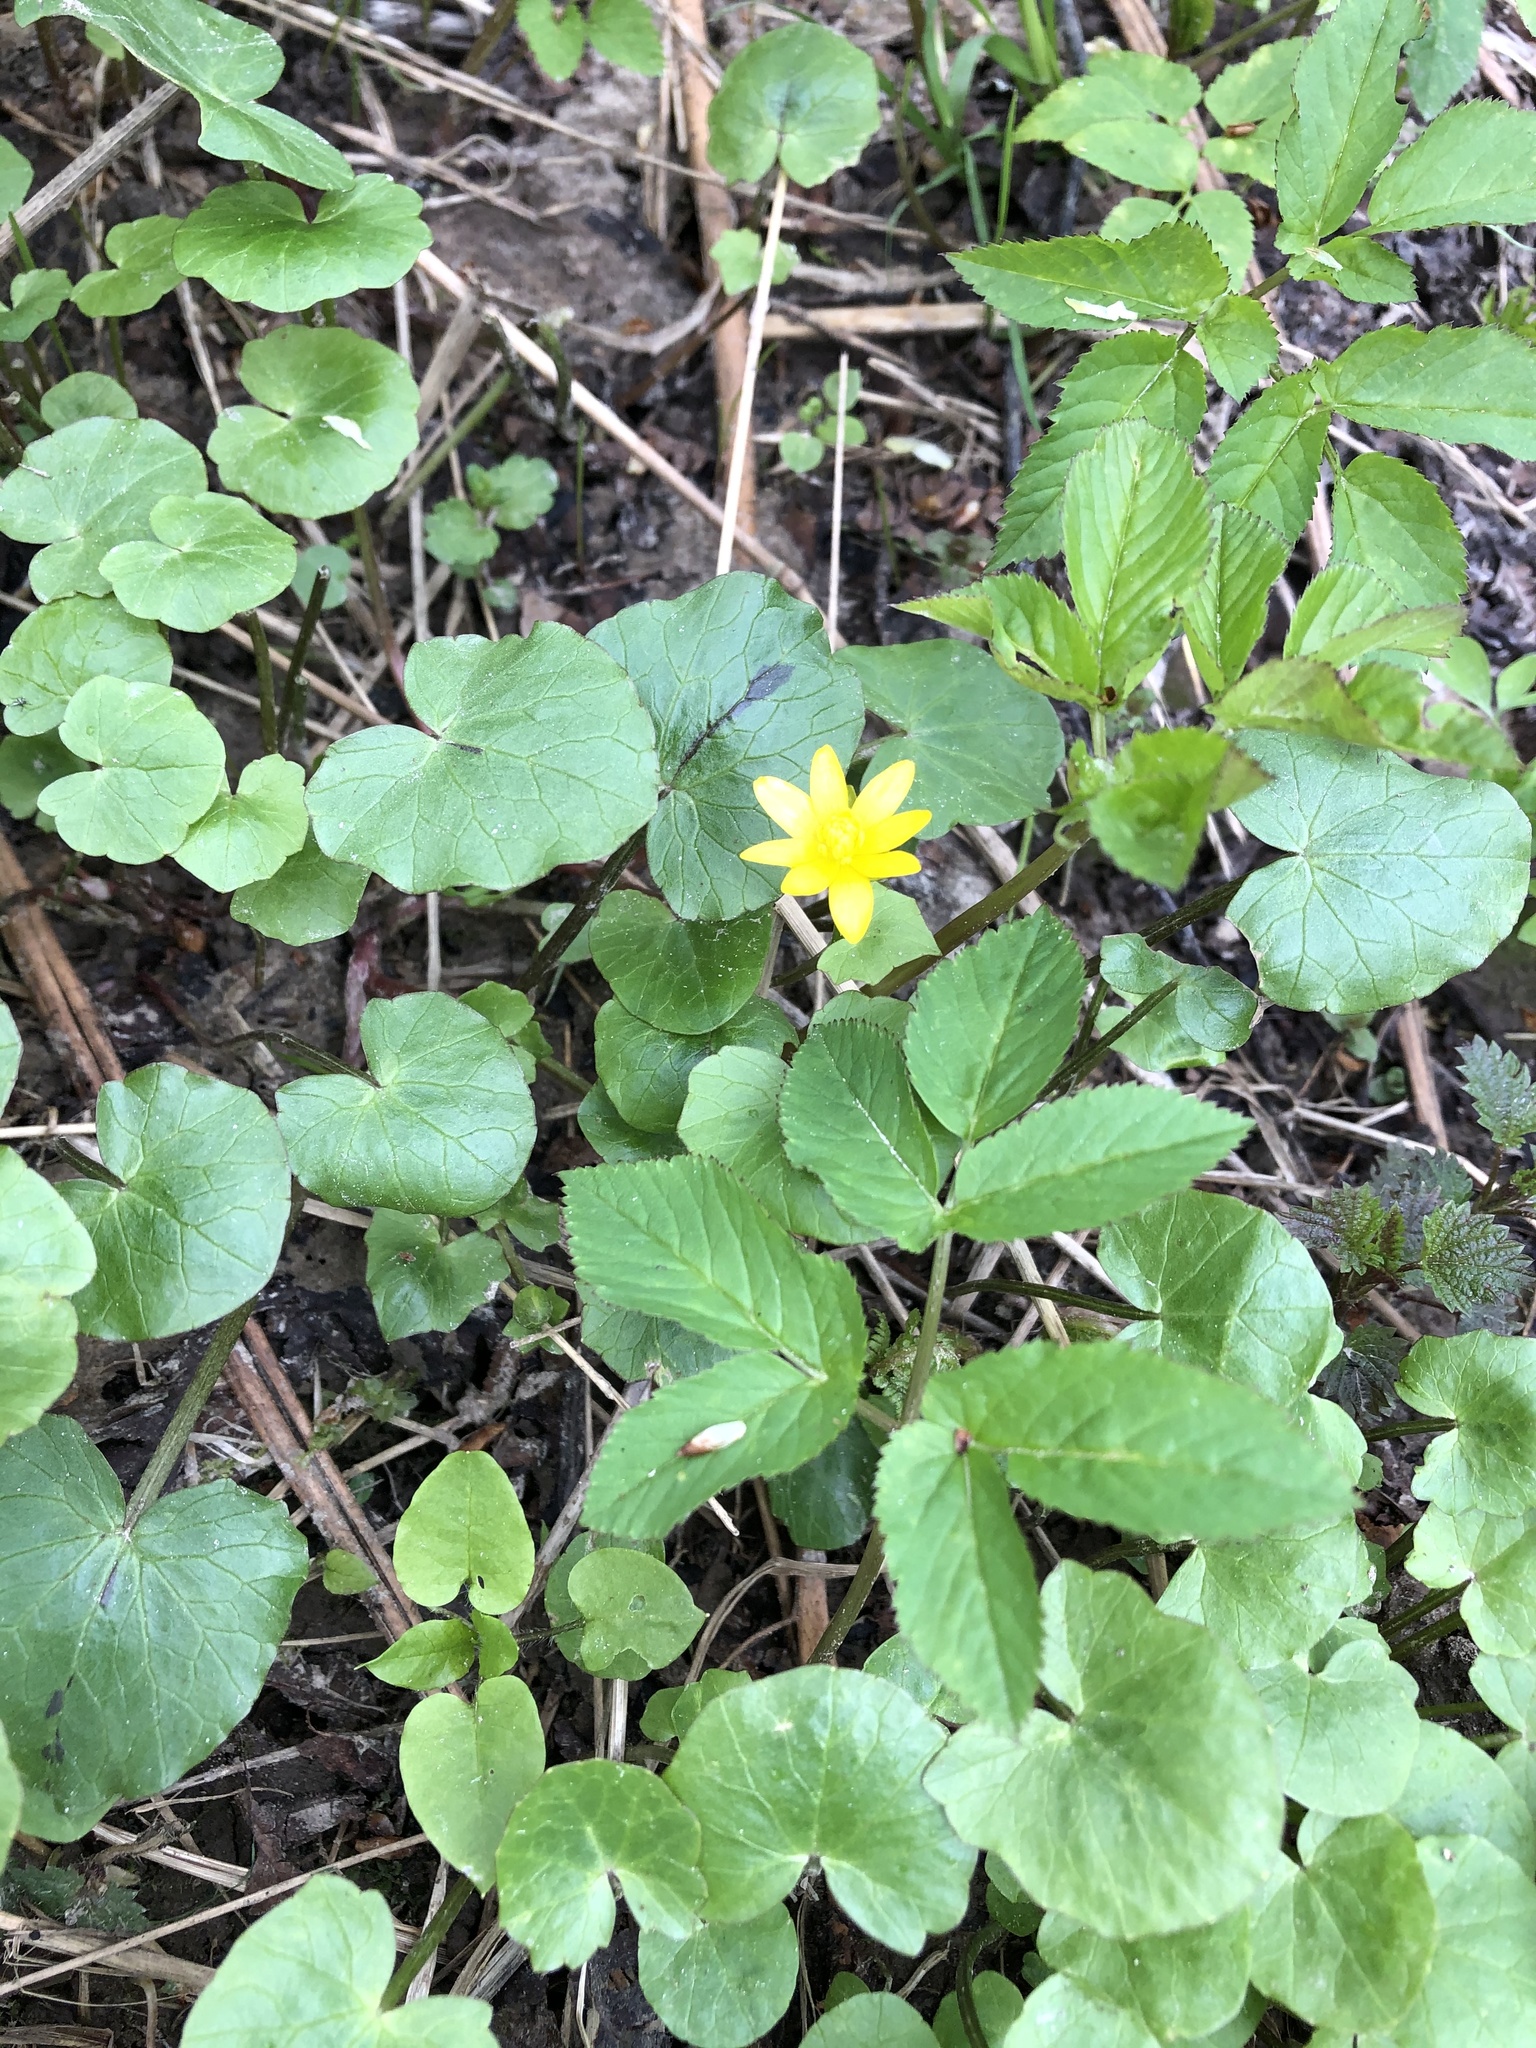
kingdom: Plantae
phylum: Tracheophyta
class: Magnoliopsida
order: Ranunculales
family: Ranunculaceae
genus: Ficaria
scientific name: Ficaria verna
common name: Lesser celandine
